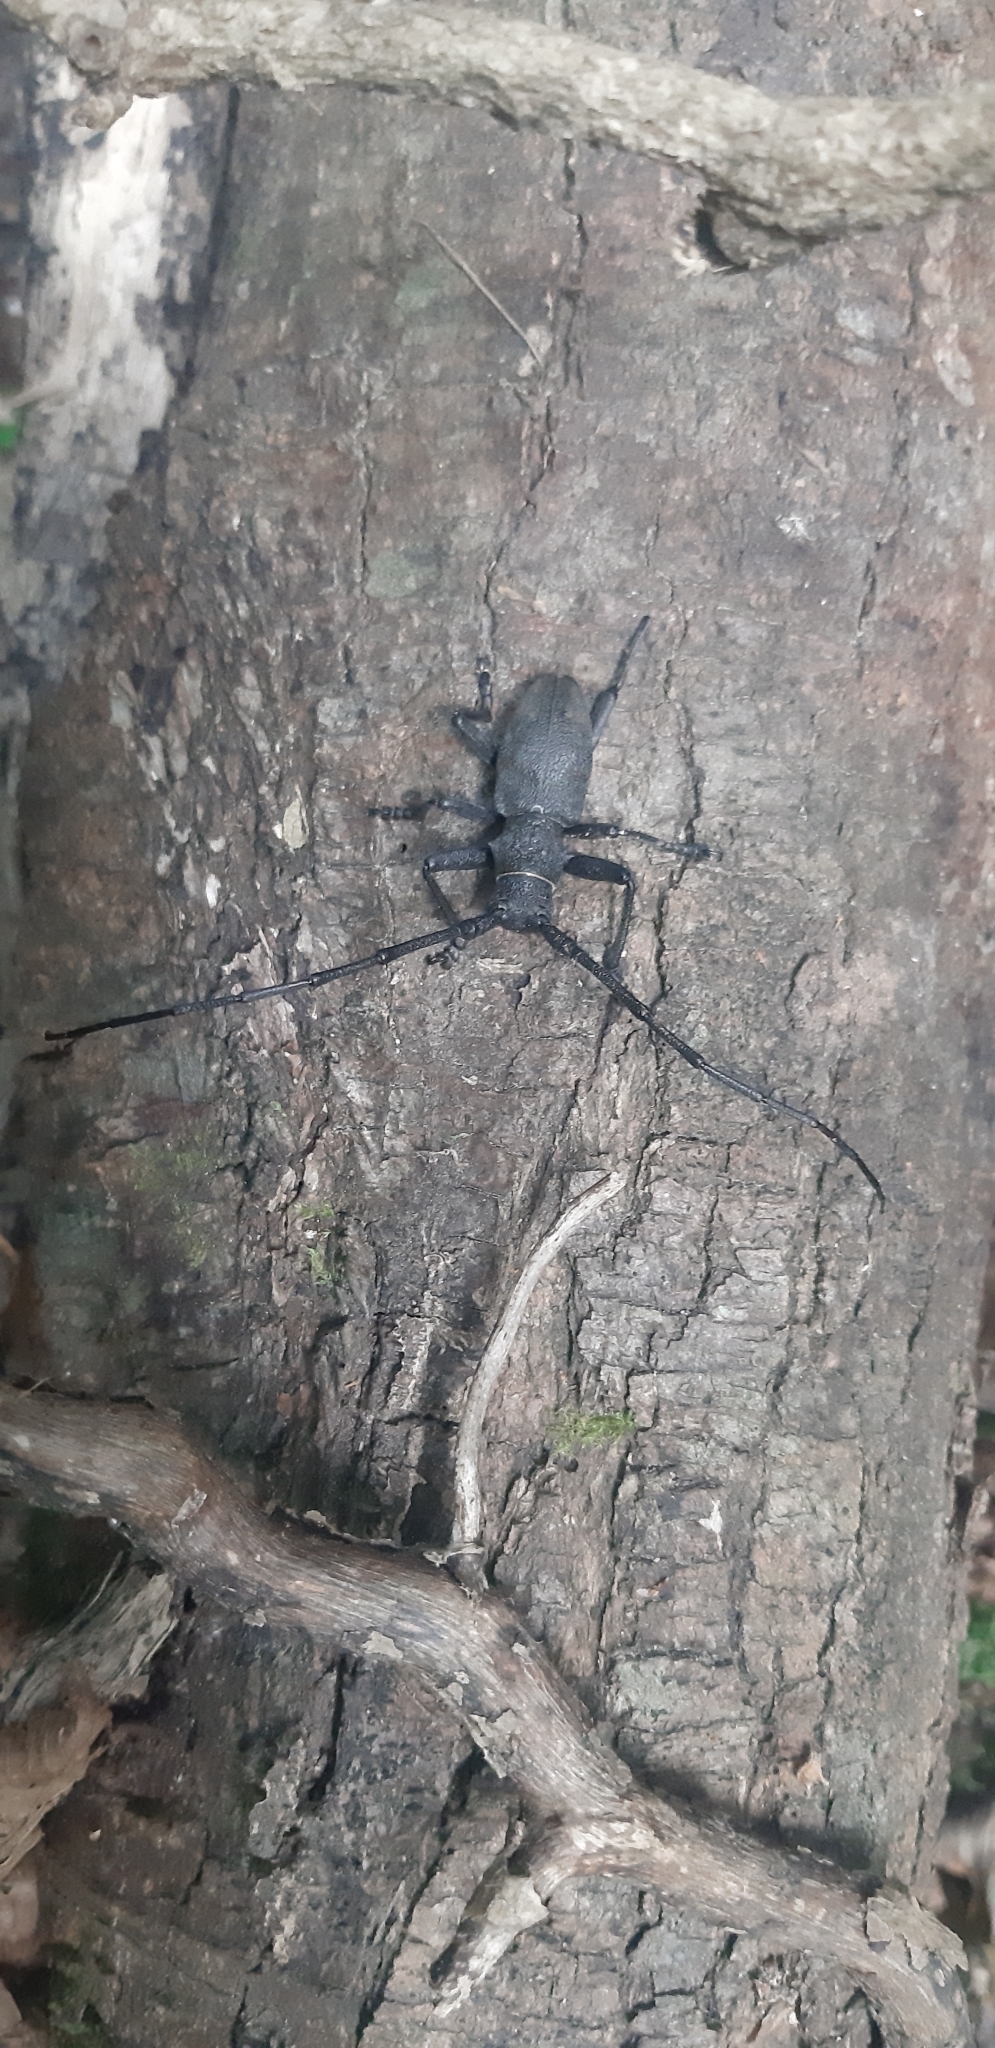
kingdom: Animalia
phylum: Arthropoda
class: Insecta
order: Coleoptera
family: Cerambycidae
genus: Morimus
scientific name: Morimus asper
